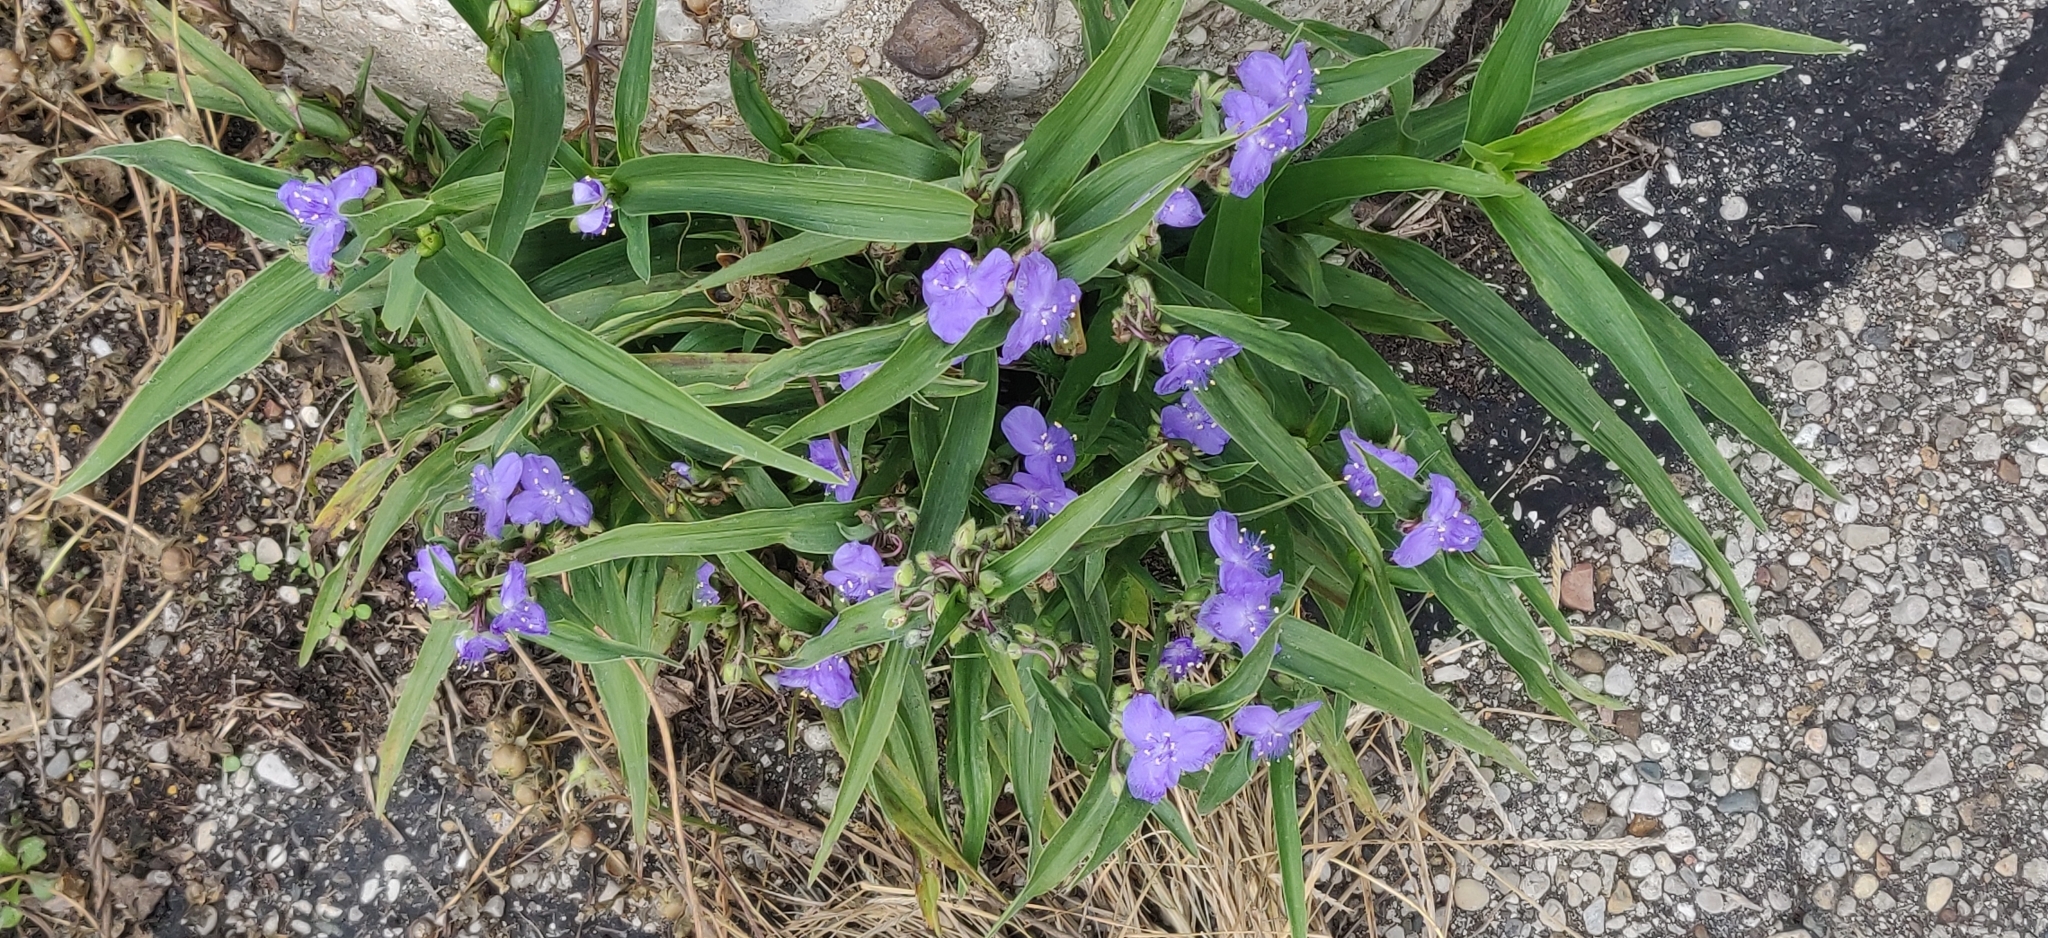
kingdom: Plantae
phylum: Tracheophyta
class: Liliopsida
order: Commelinales
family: Commelinaceae
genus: Tradescantia
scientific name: Tradescantia virginiana
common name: Spiderwort
